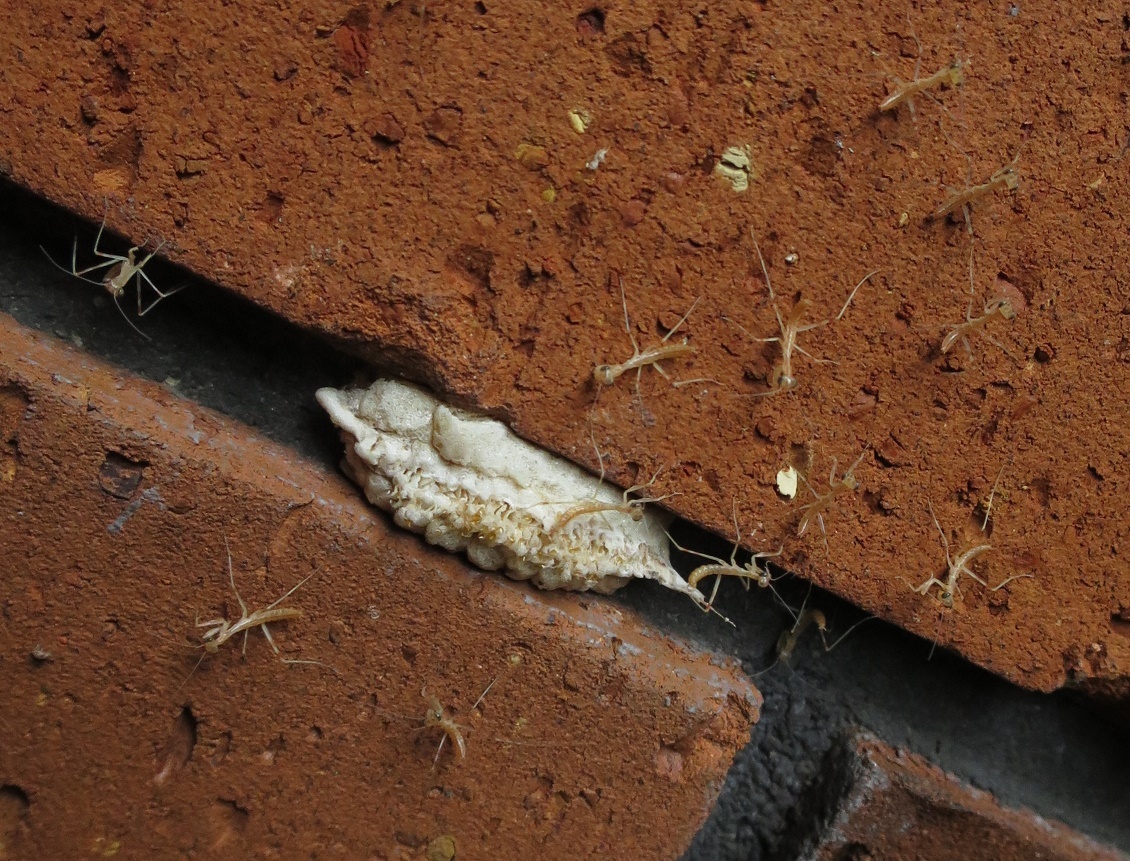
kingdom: Animalia
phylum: Arthropoda
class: Insecta
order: Mantodea
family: Miomantidae
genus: Miomantis
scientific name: Miomantis caffra
